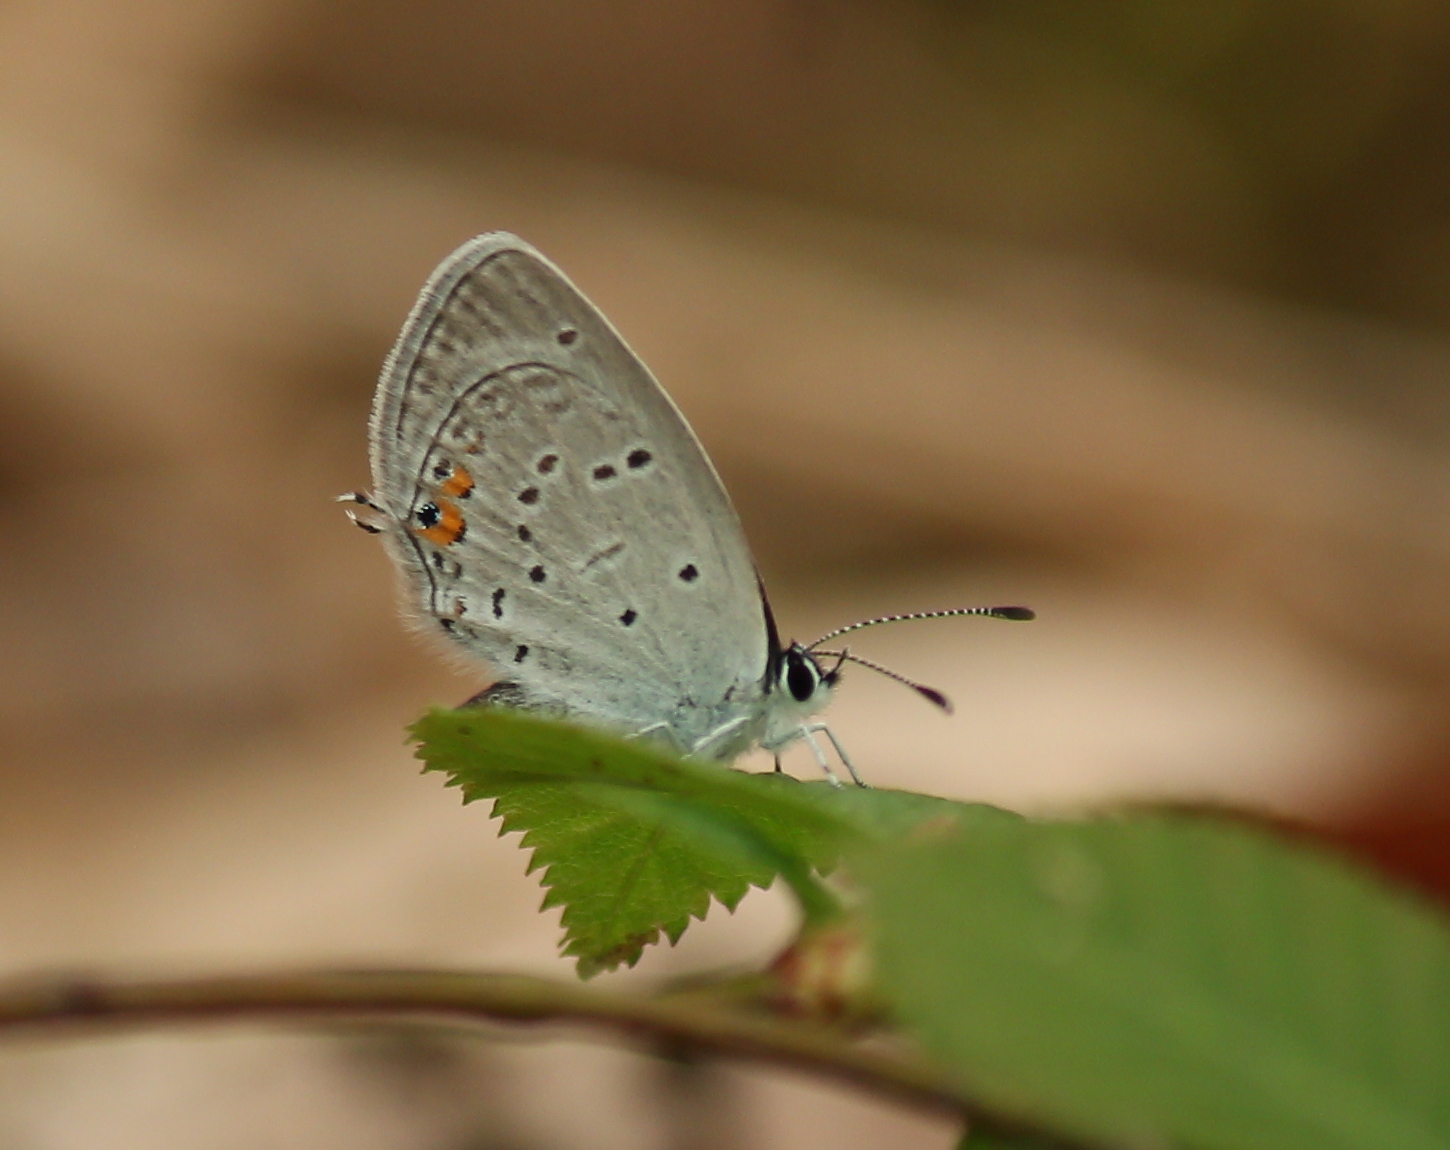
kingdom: Animalia
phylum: Arthropoda
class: Insecta
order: Lepidoptera
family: Lycaenidae
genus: Elkalyce
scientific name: Elkalyce comyntas
